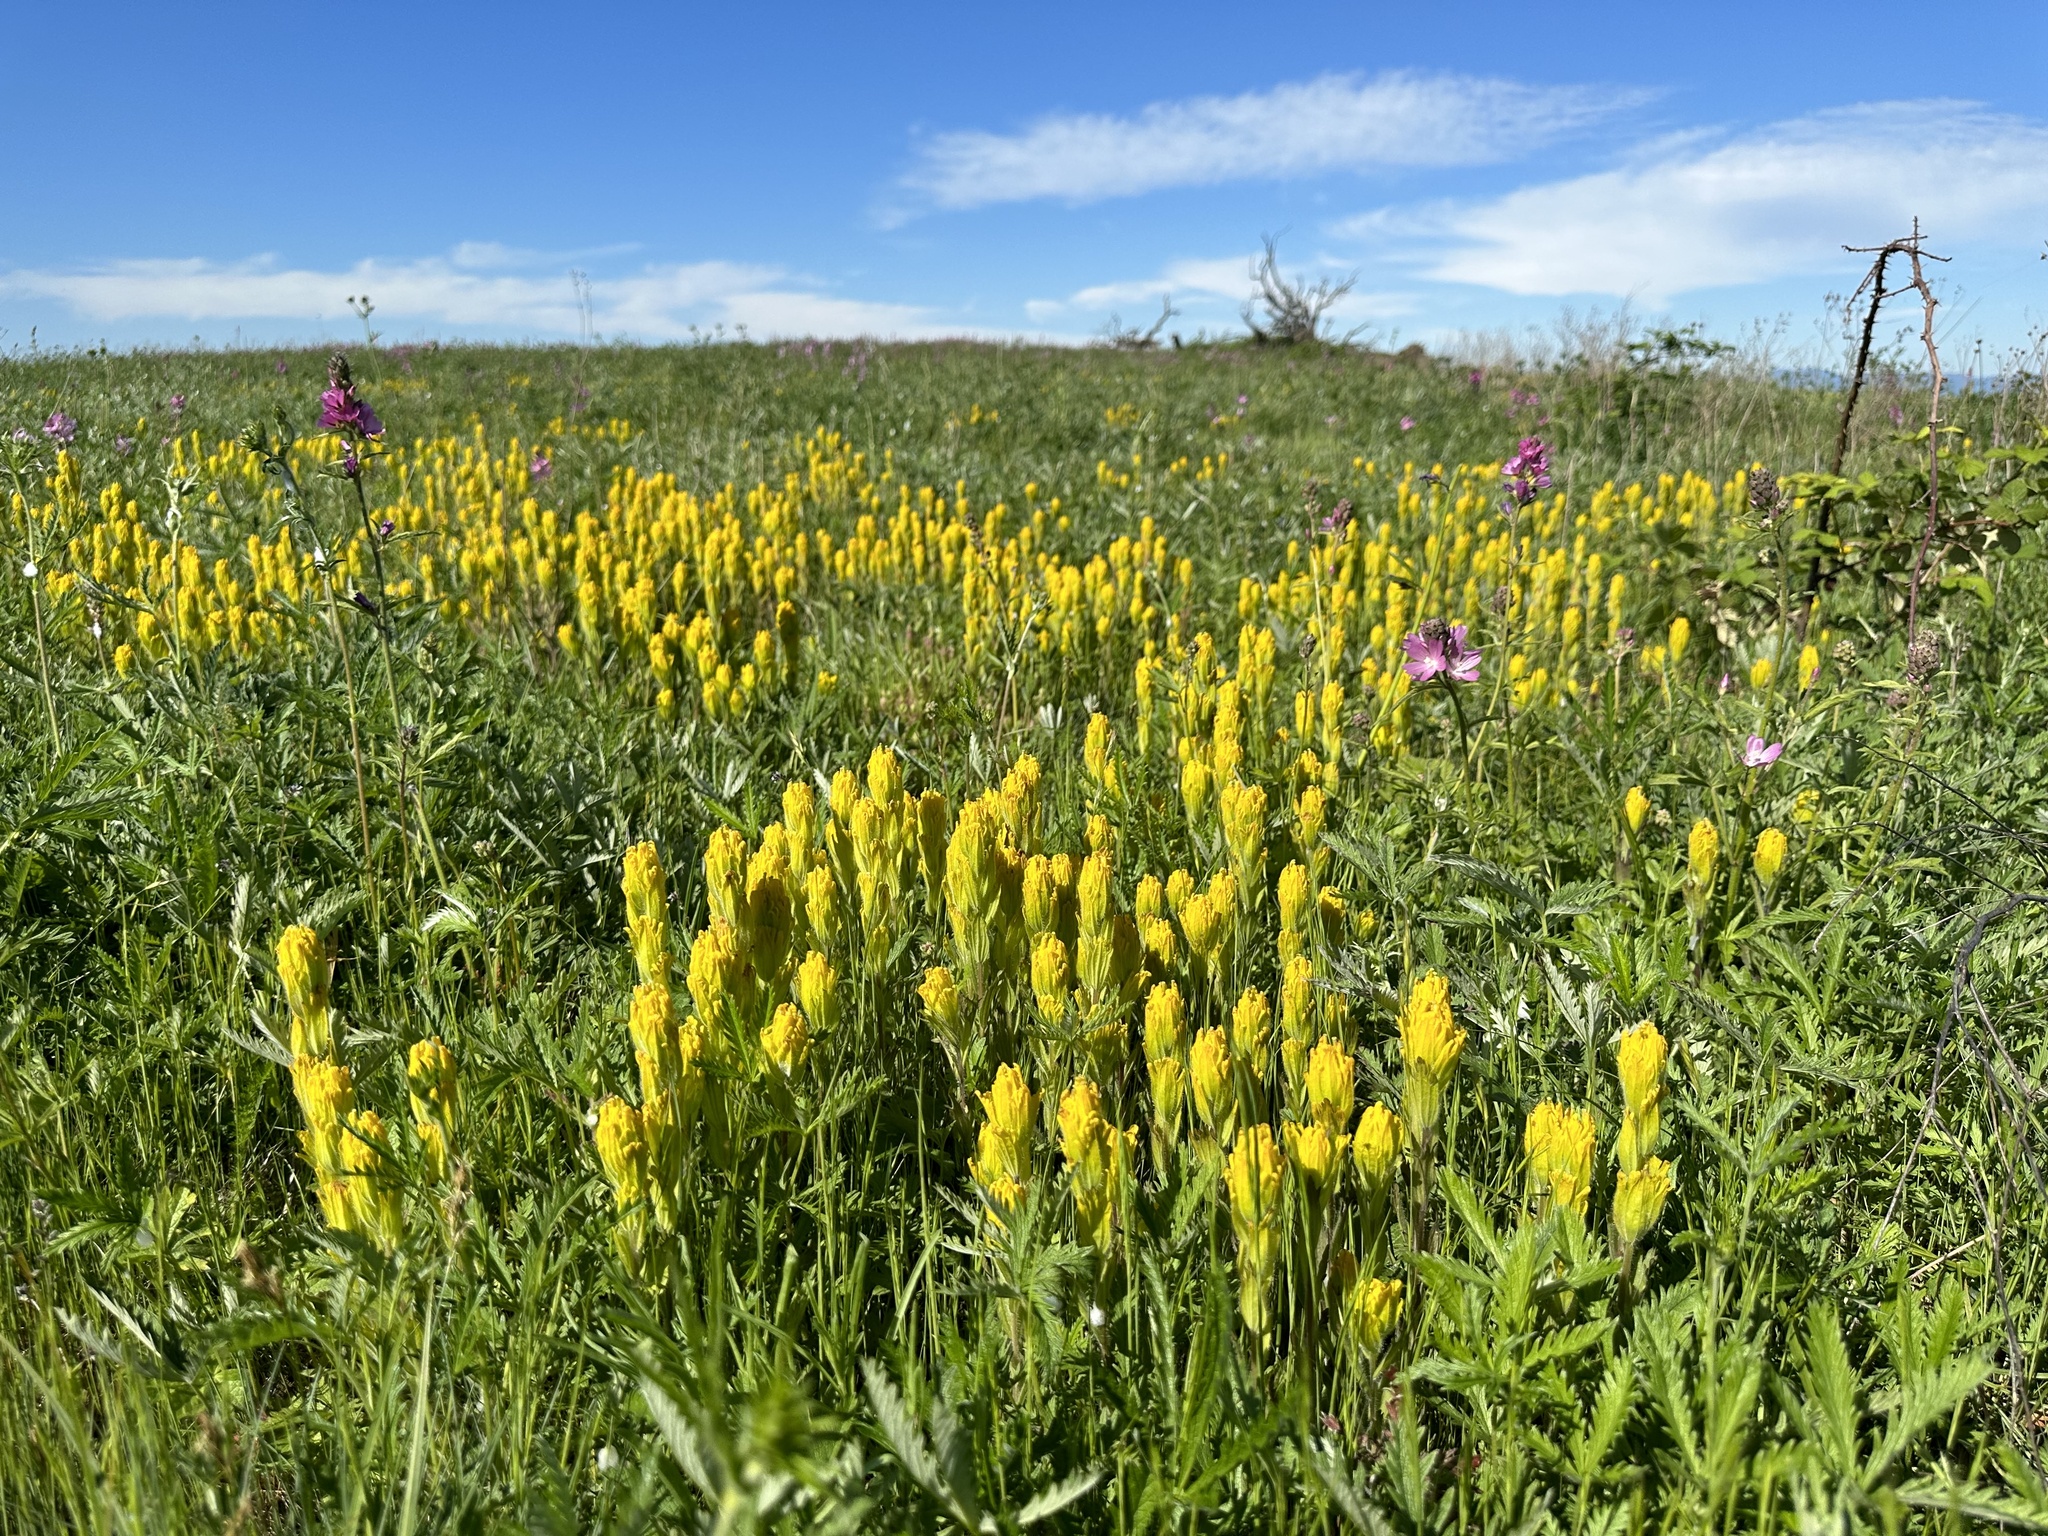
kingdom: Plantae
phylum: Tracheophyta
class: Magnoliopsida
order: Lamiales
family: Orobanchaceae
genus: Castilleja
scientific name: Castilleja levisecta
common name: Golden paintbrush
